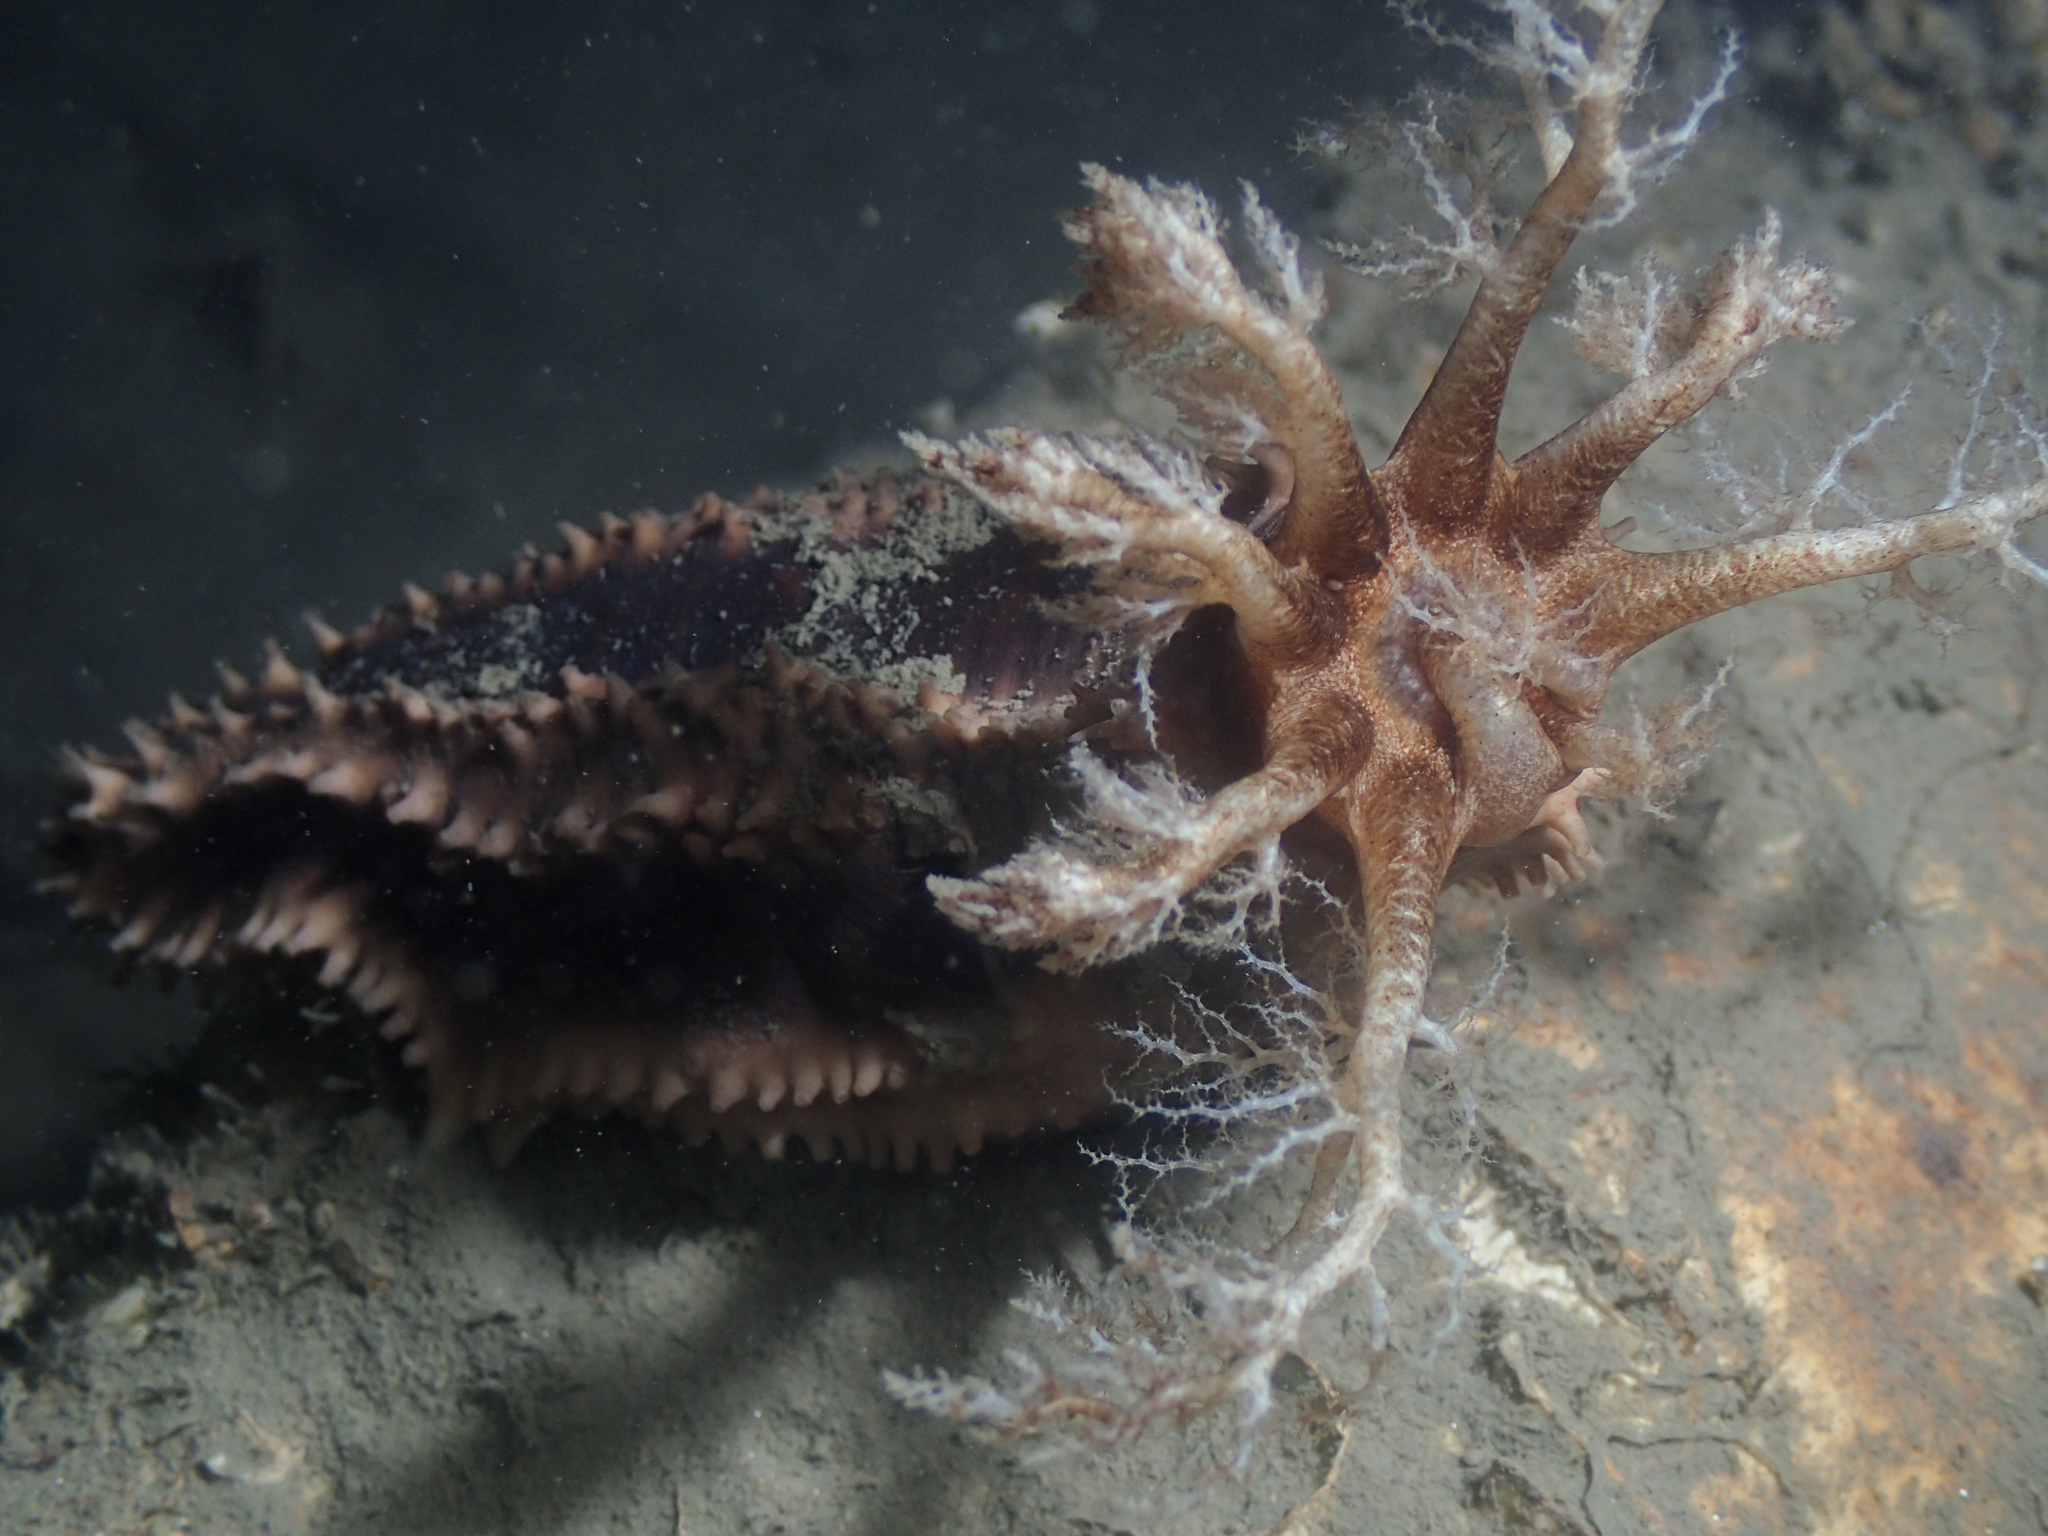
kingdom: Animalia
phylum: Echinodermata
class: Holothuroidea
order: Dendrochirotida
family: Cucumariidae
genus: Ocnus
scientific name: Ocnus planci
